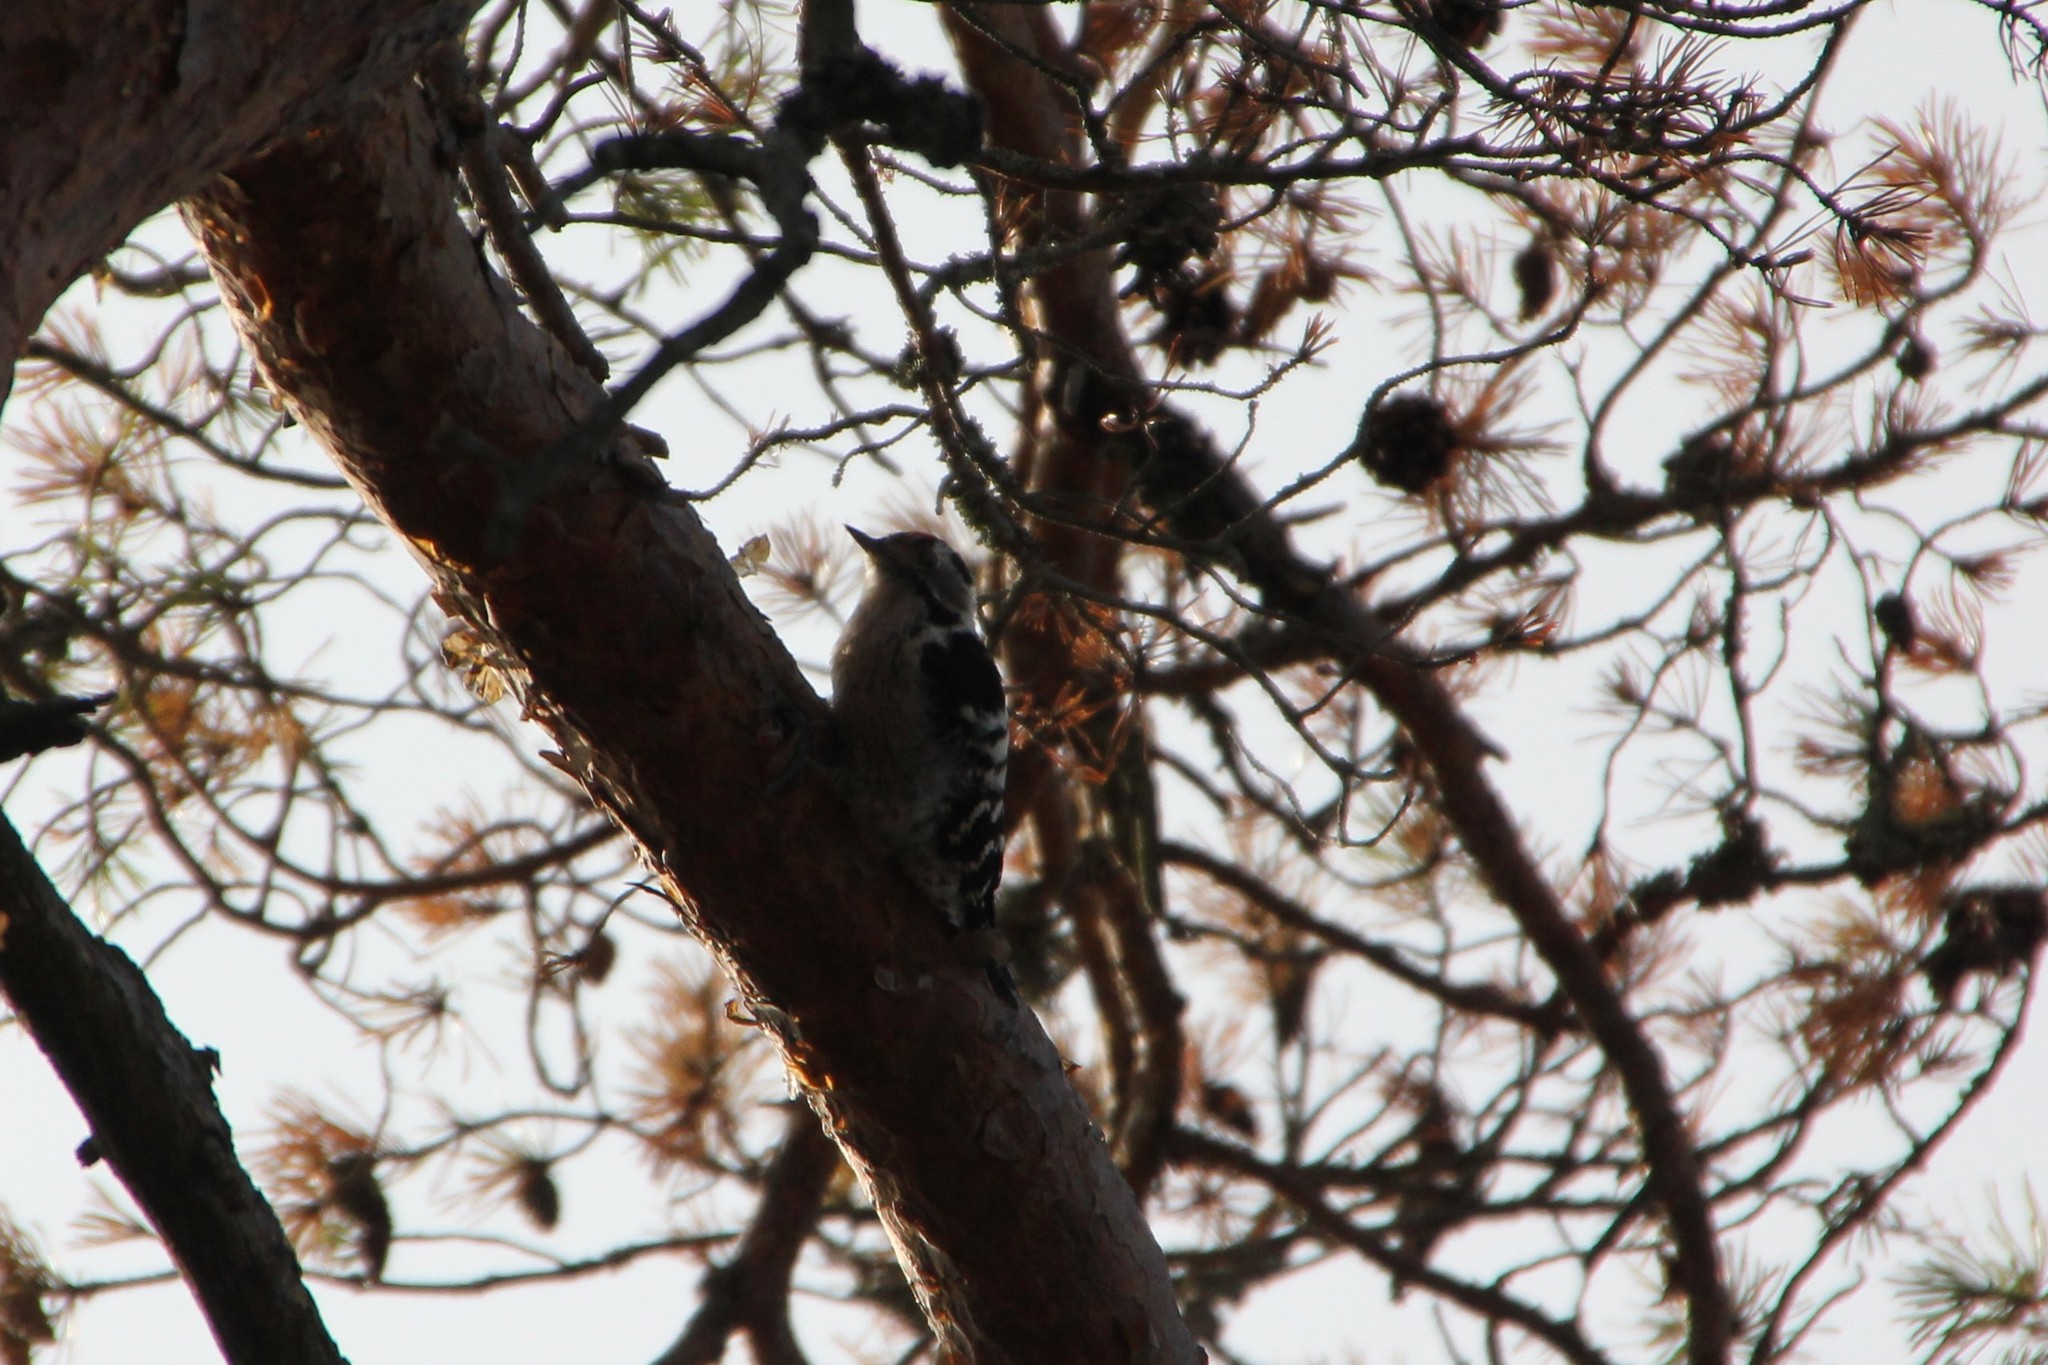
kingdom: Animalia
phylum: Chordata
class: Aves
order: Piciformes
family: Picidae
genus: Dryobates
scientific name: Dryobates minor
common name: Lesser spotted woodpecker
